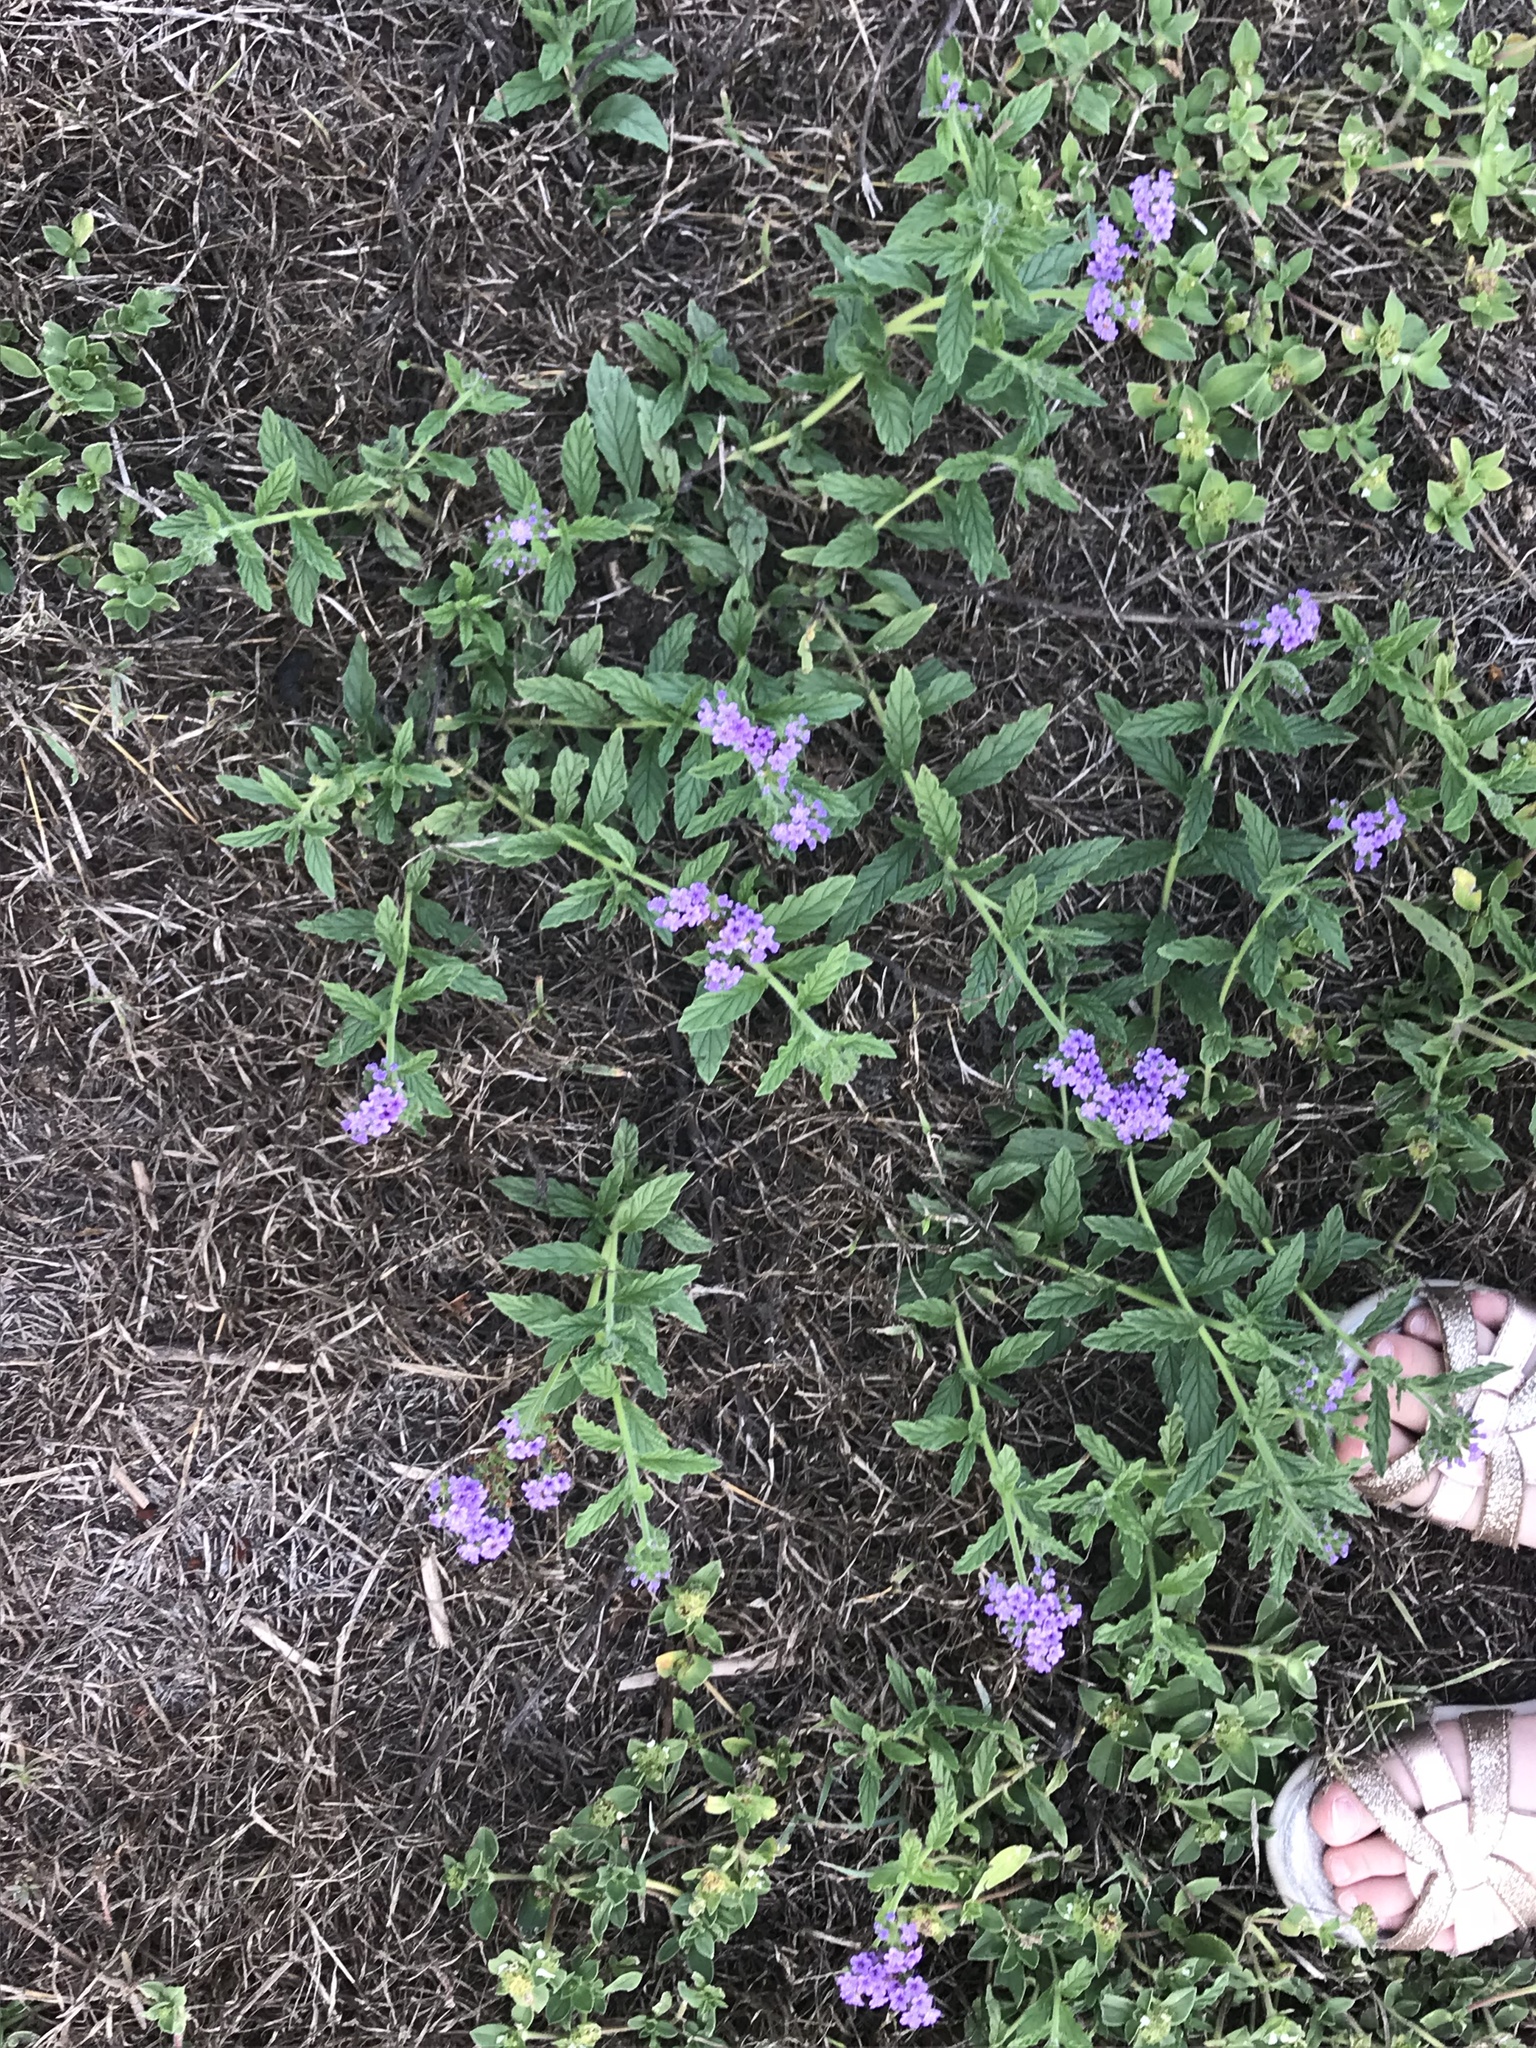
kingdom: Plantae
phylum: Tracheophyta
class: Magnoliopsida
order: Boraginales
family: Heliotropiaceae
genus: Heliotropium
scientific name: Heliotropium amplexicaule
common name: Clasping heliotrope
